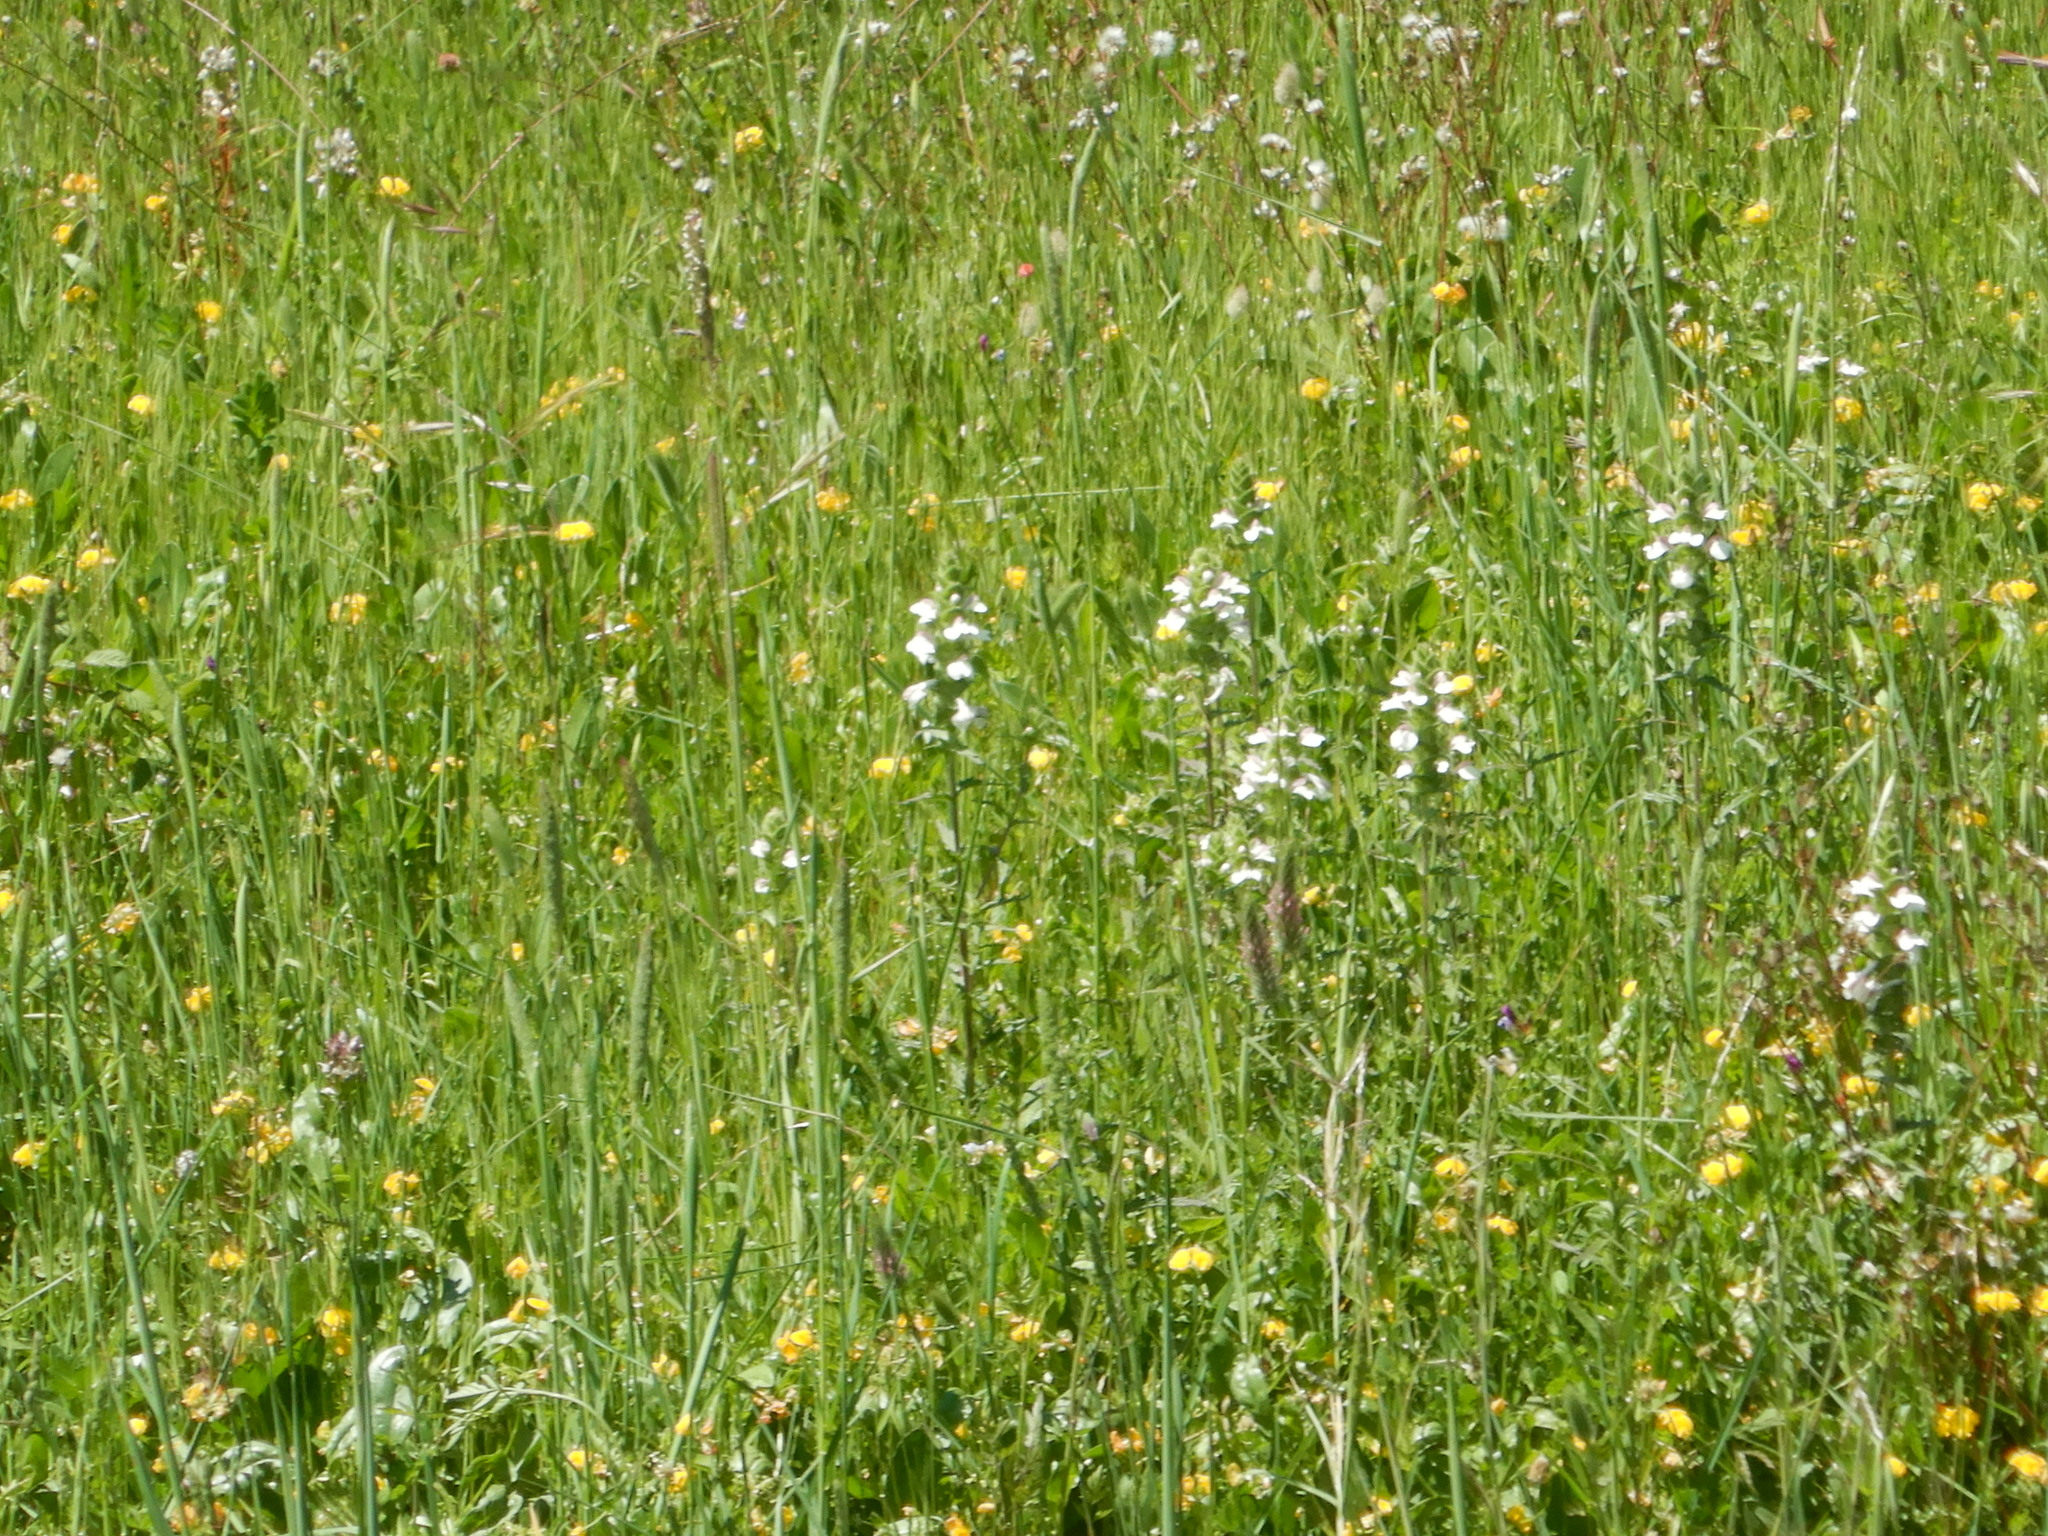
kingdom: Plantae
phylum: Tracheophyta
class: Magnoliopsida
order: Lamiales
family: Orobanchaceae
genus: Bellardia
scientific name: Bellardia trixago
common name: Mediterranean lineseed
